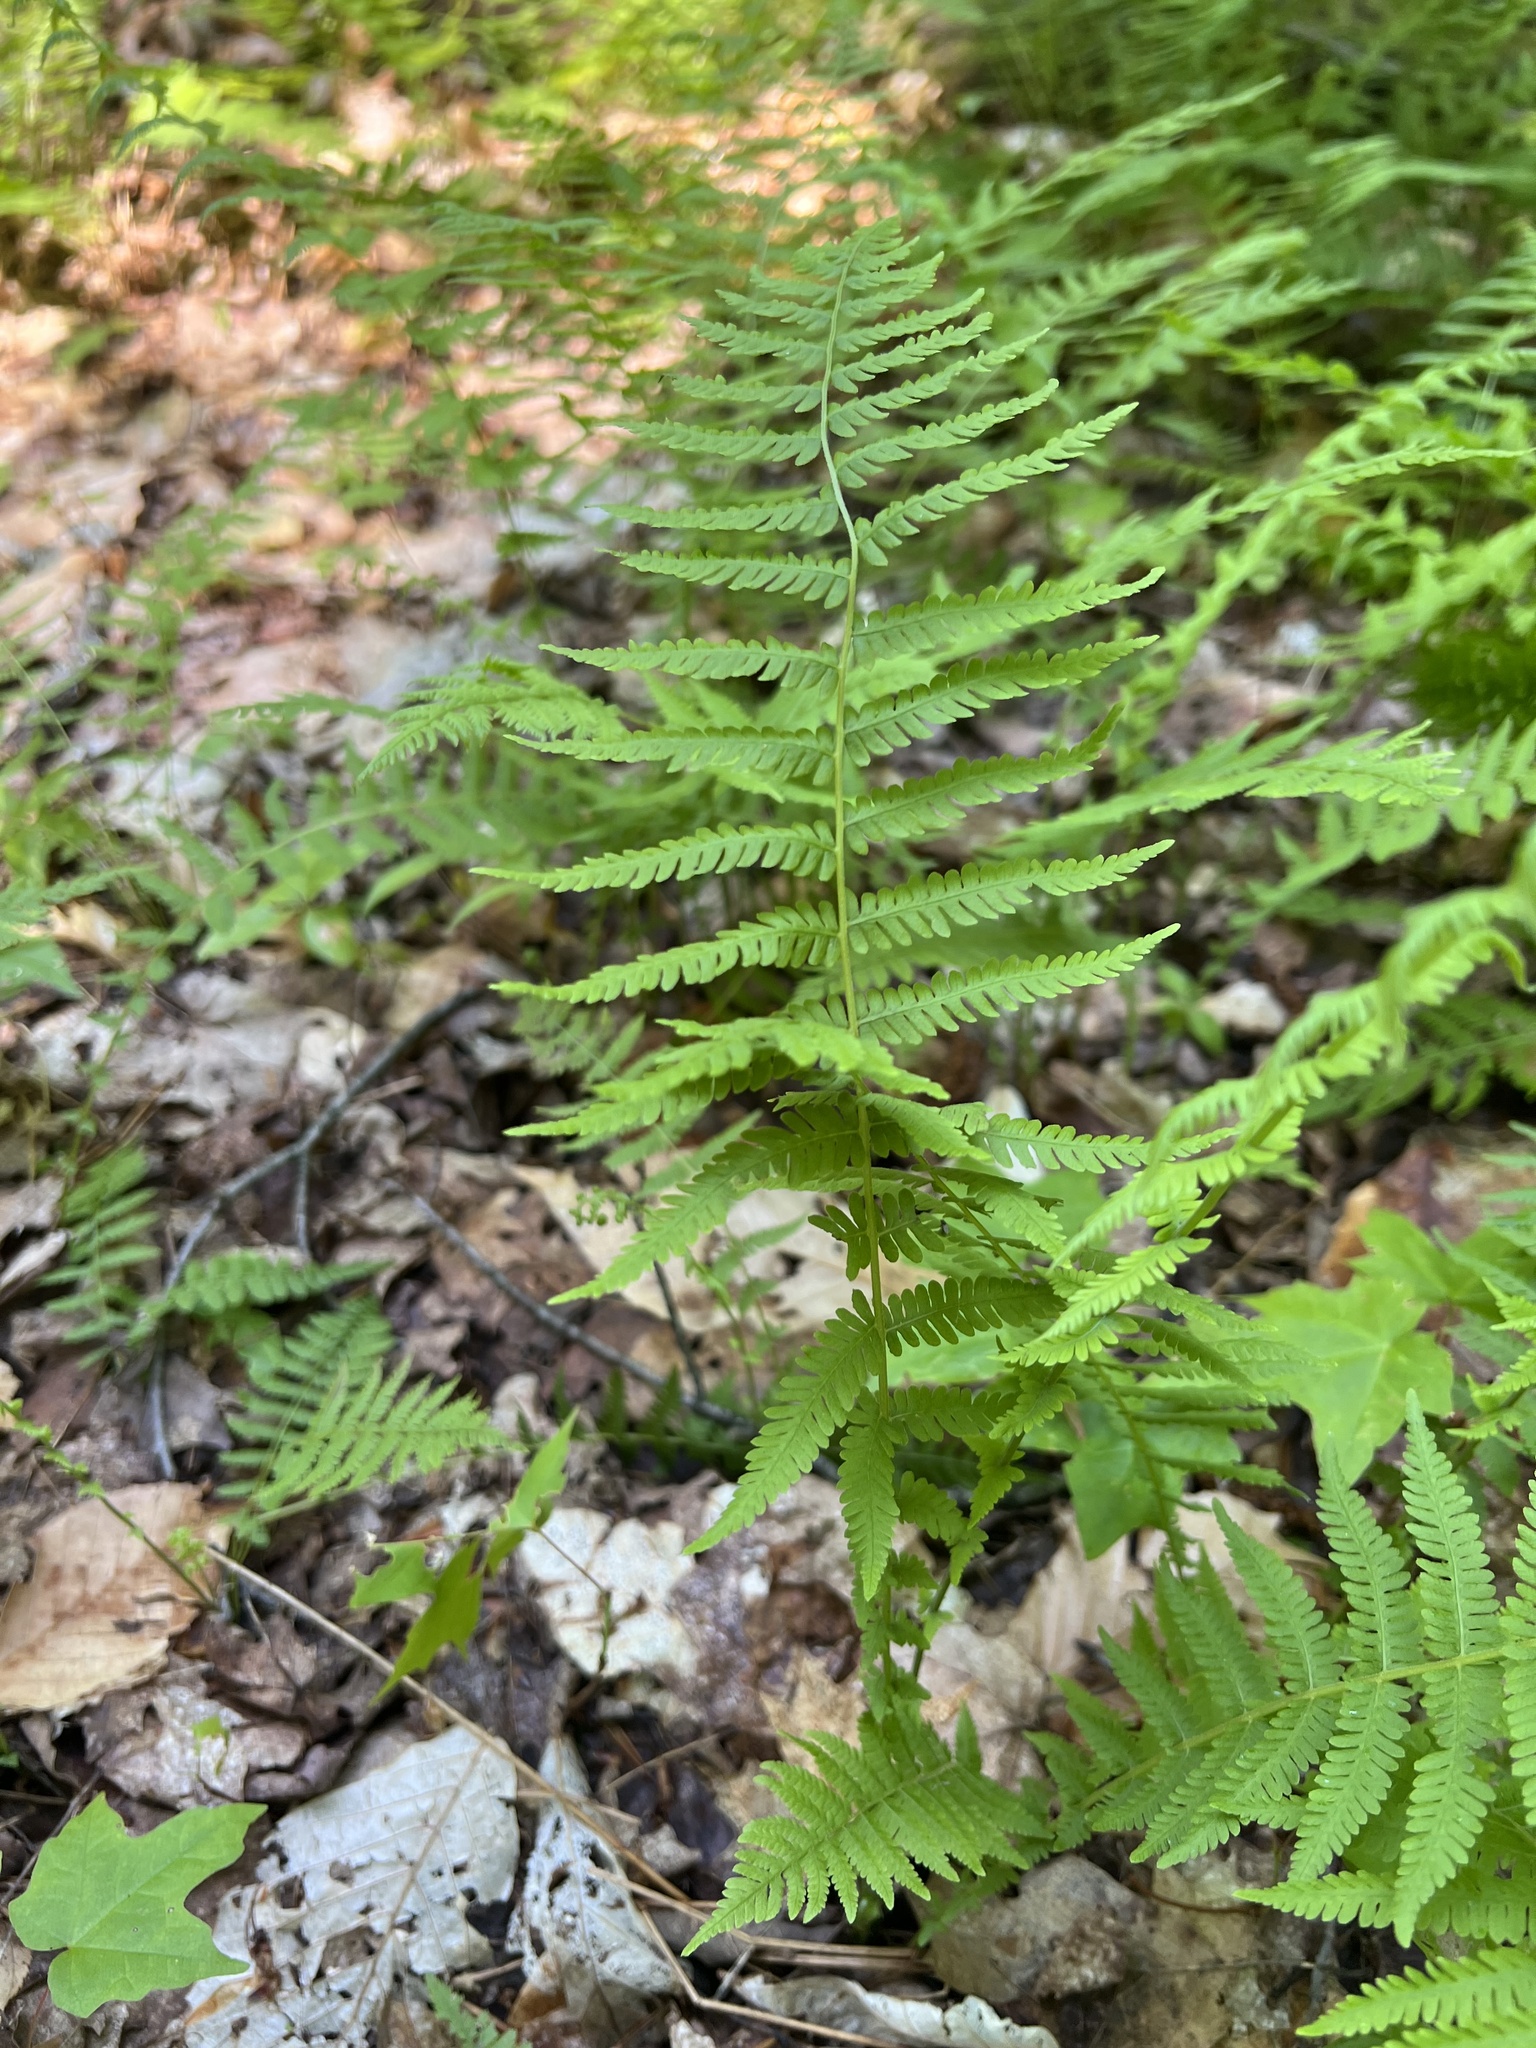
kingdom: Plantae
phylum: Tracheophyta
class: Polypodiopsida
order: Polypodiales
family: Thelypteridaceae
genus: Amauropelta
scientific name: Amauropelta noveboracensis
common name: New york fern
